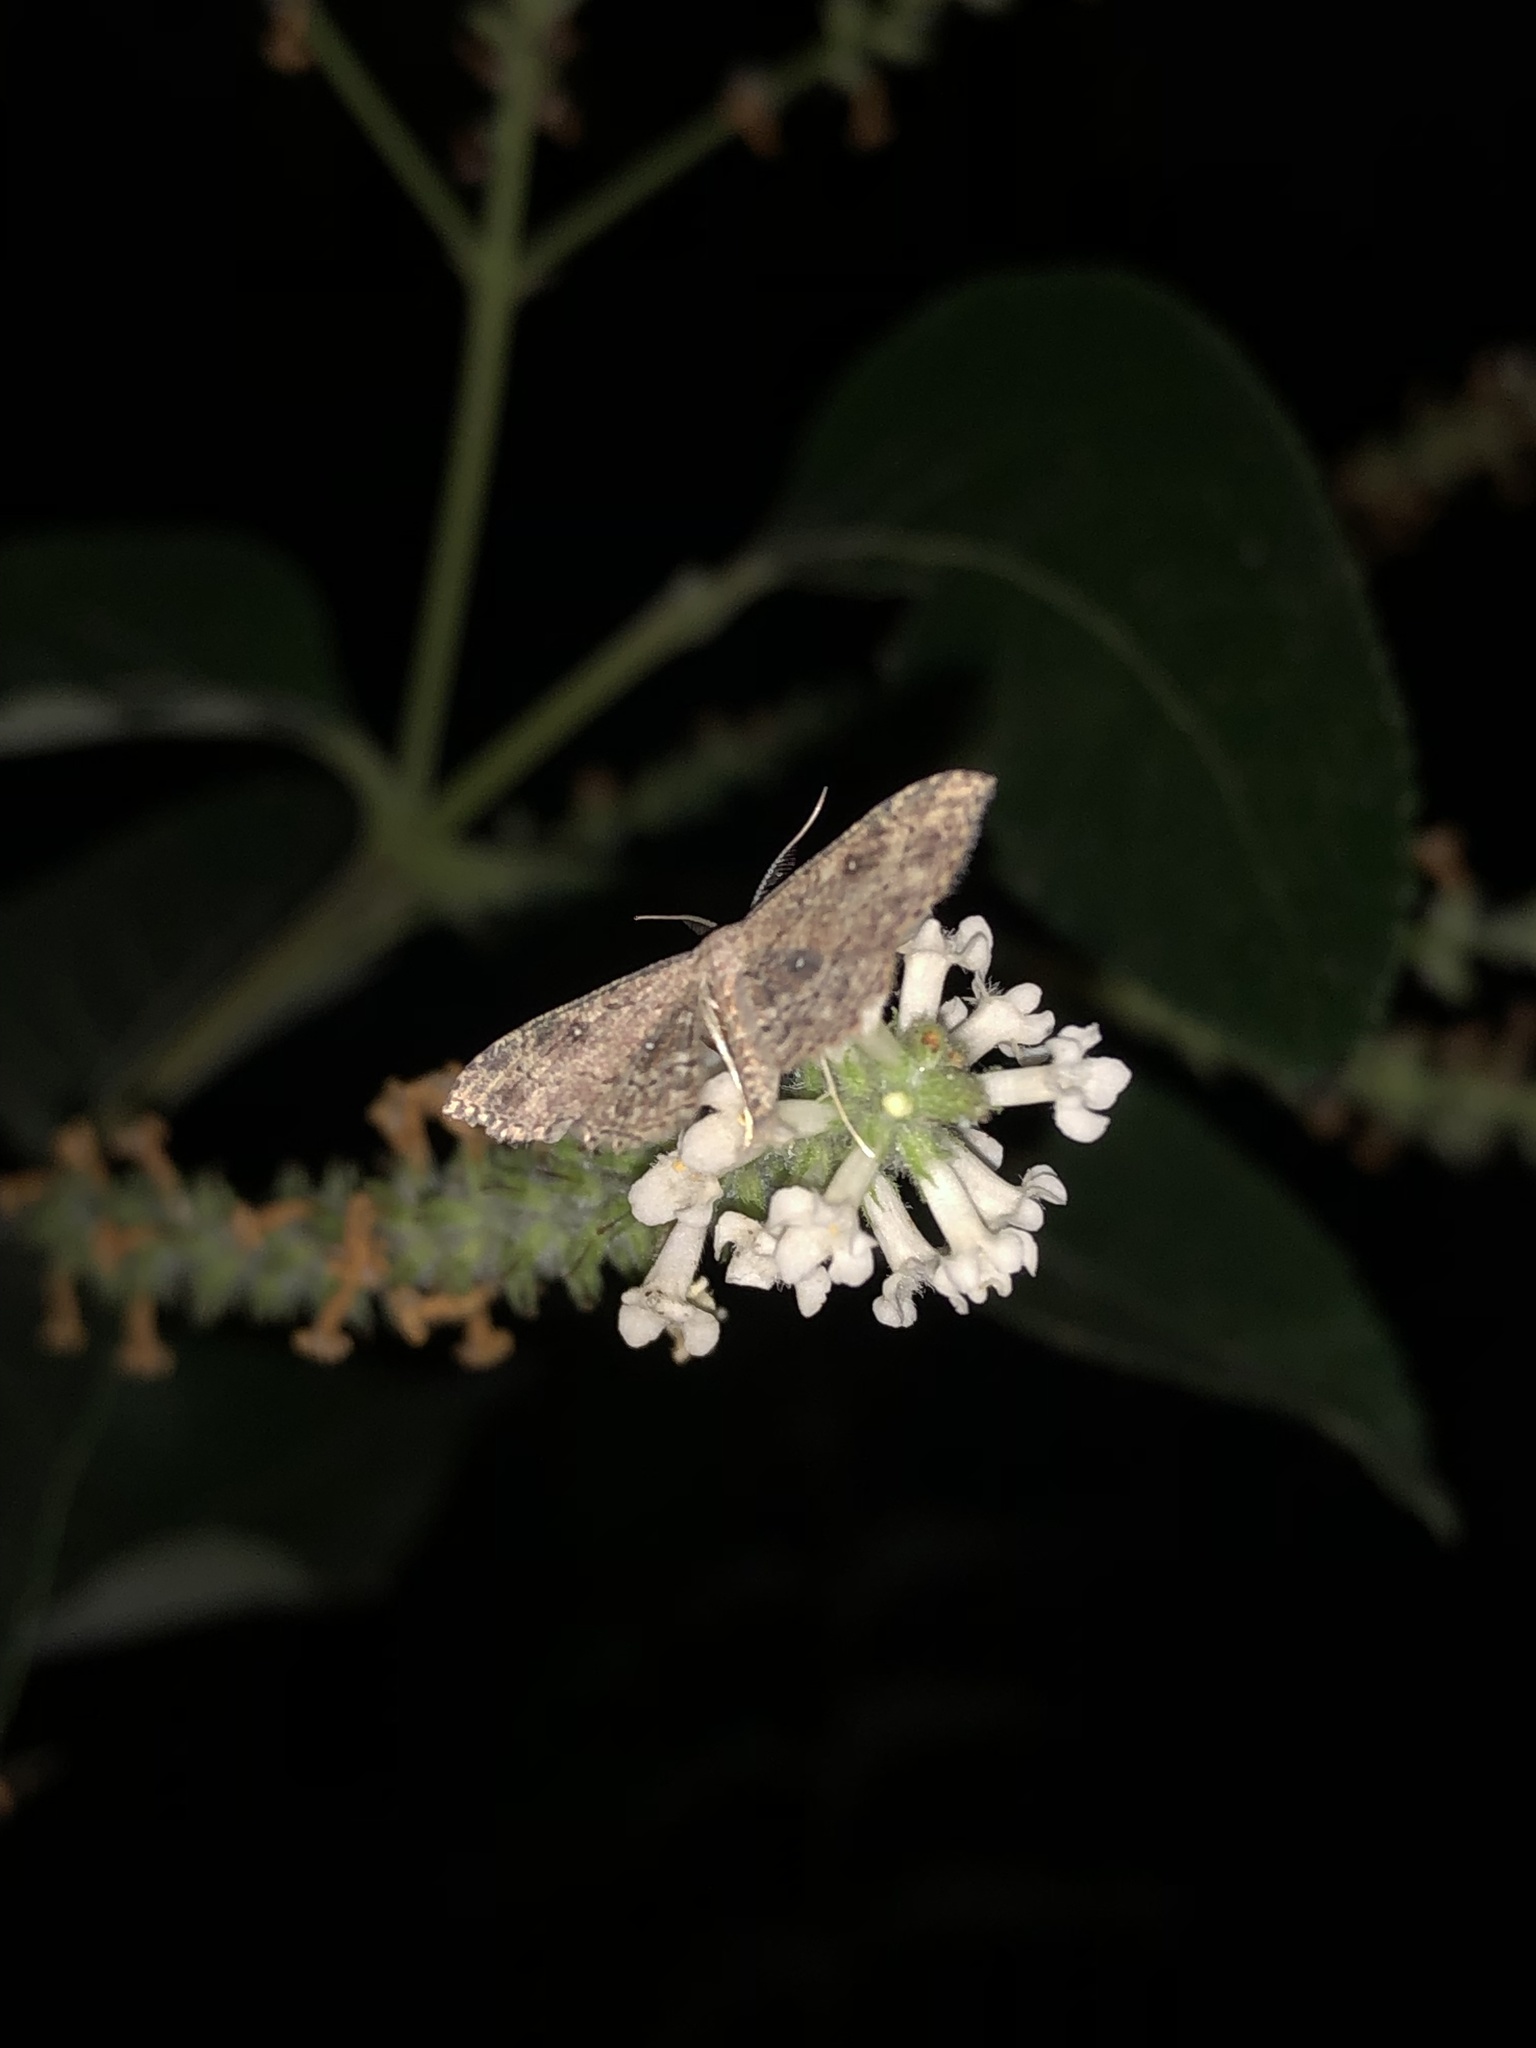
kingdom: Animalia
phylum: Arthropoda
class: Insecta
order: Lepidoptera
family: Geometridae
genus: Cyclophora
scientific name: Cyclophora nanaria
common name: Cankerworm
